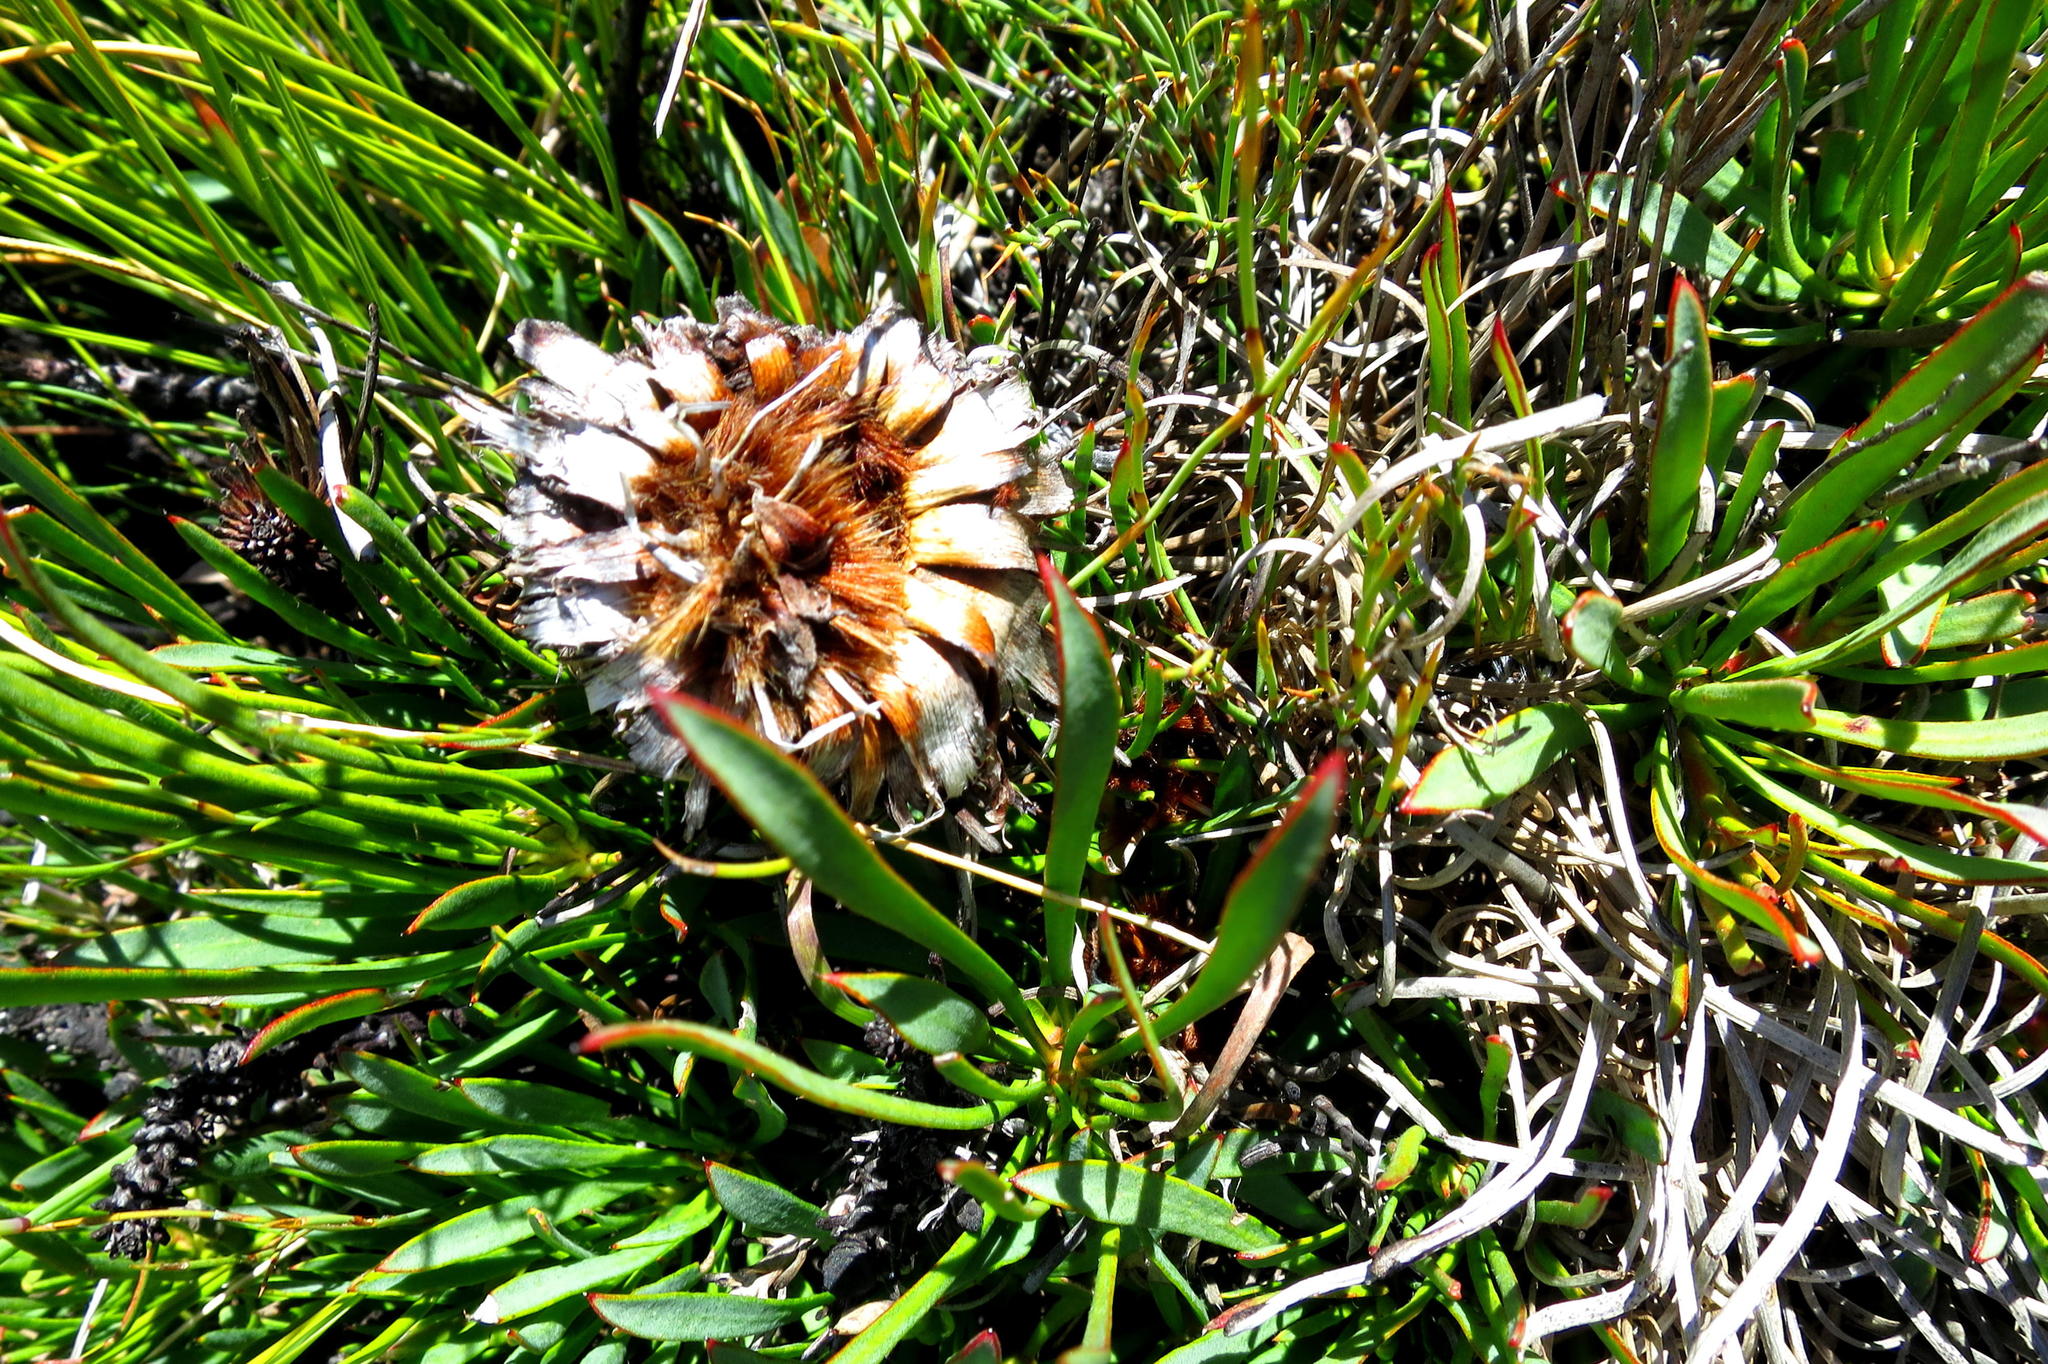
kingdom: Plantae
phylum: Tracheophyta
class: Magnoliopsida
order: Proteales
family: Proteaceae
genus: Protea
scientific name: Protea montana
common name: Swartberg sugarbush
